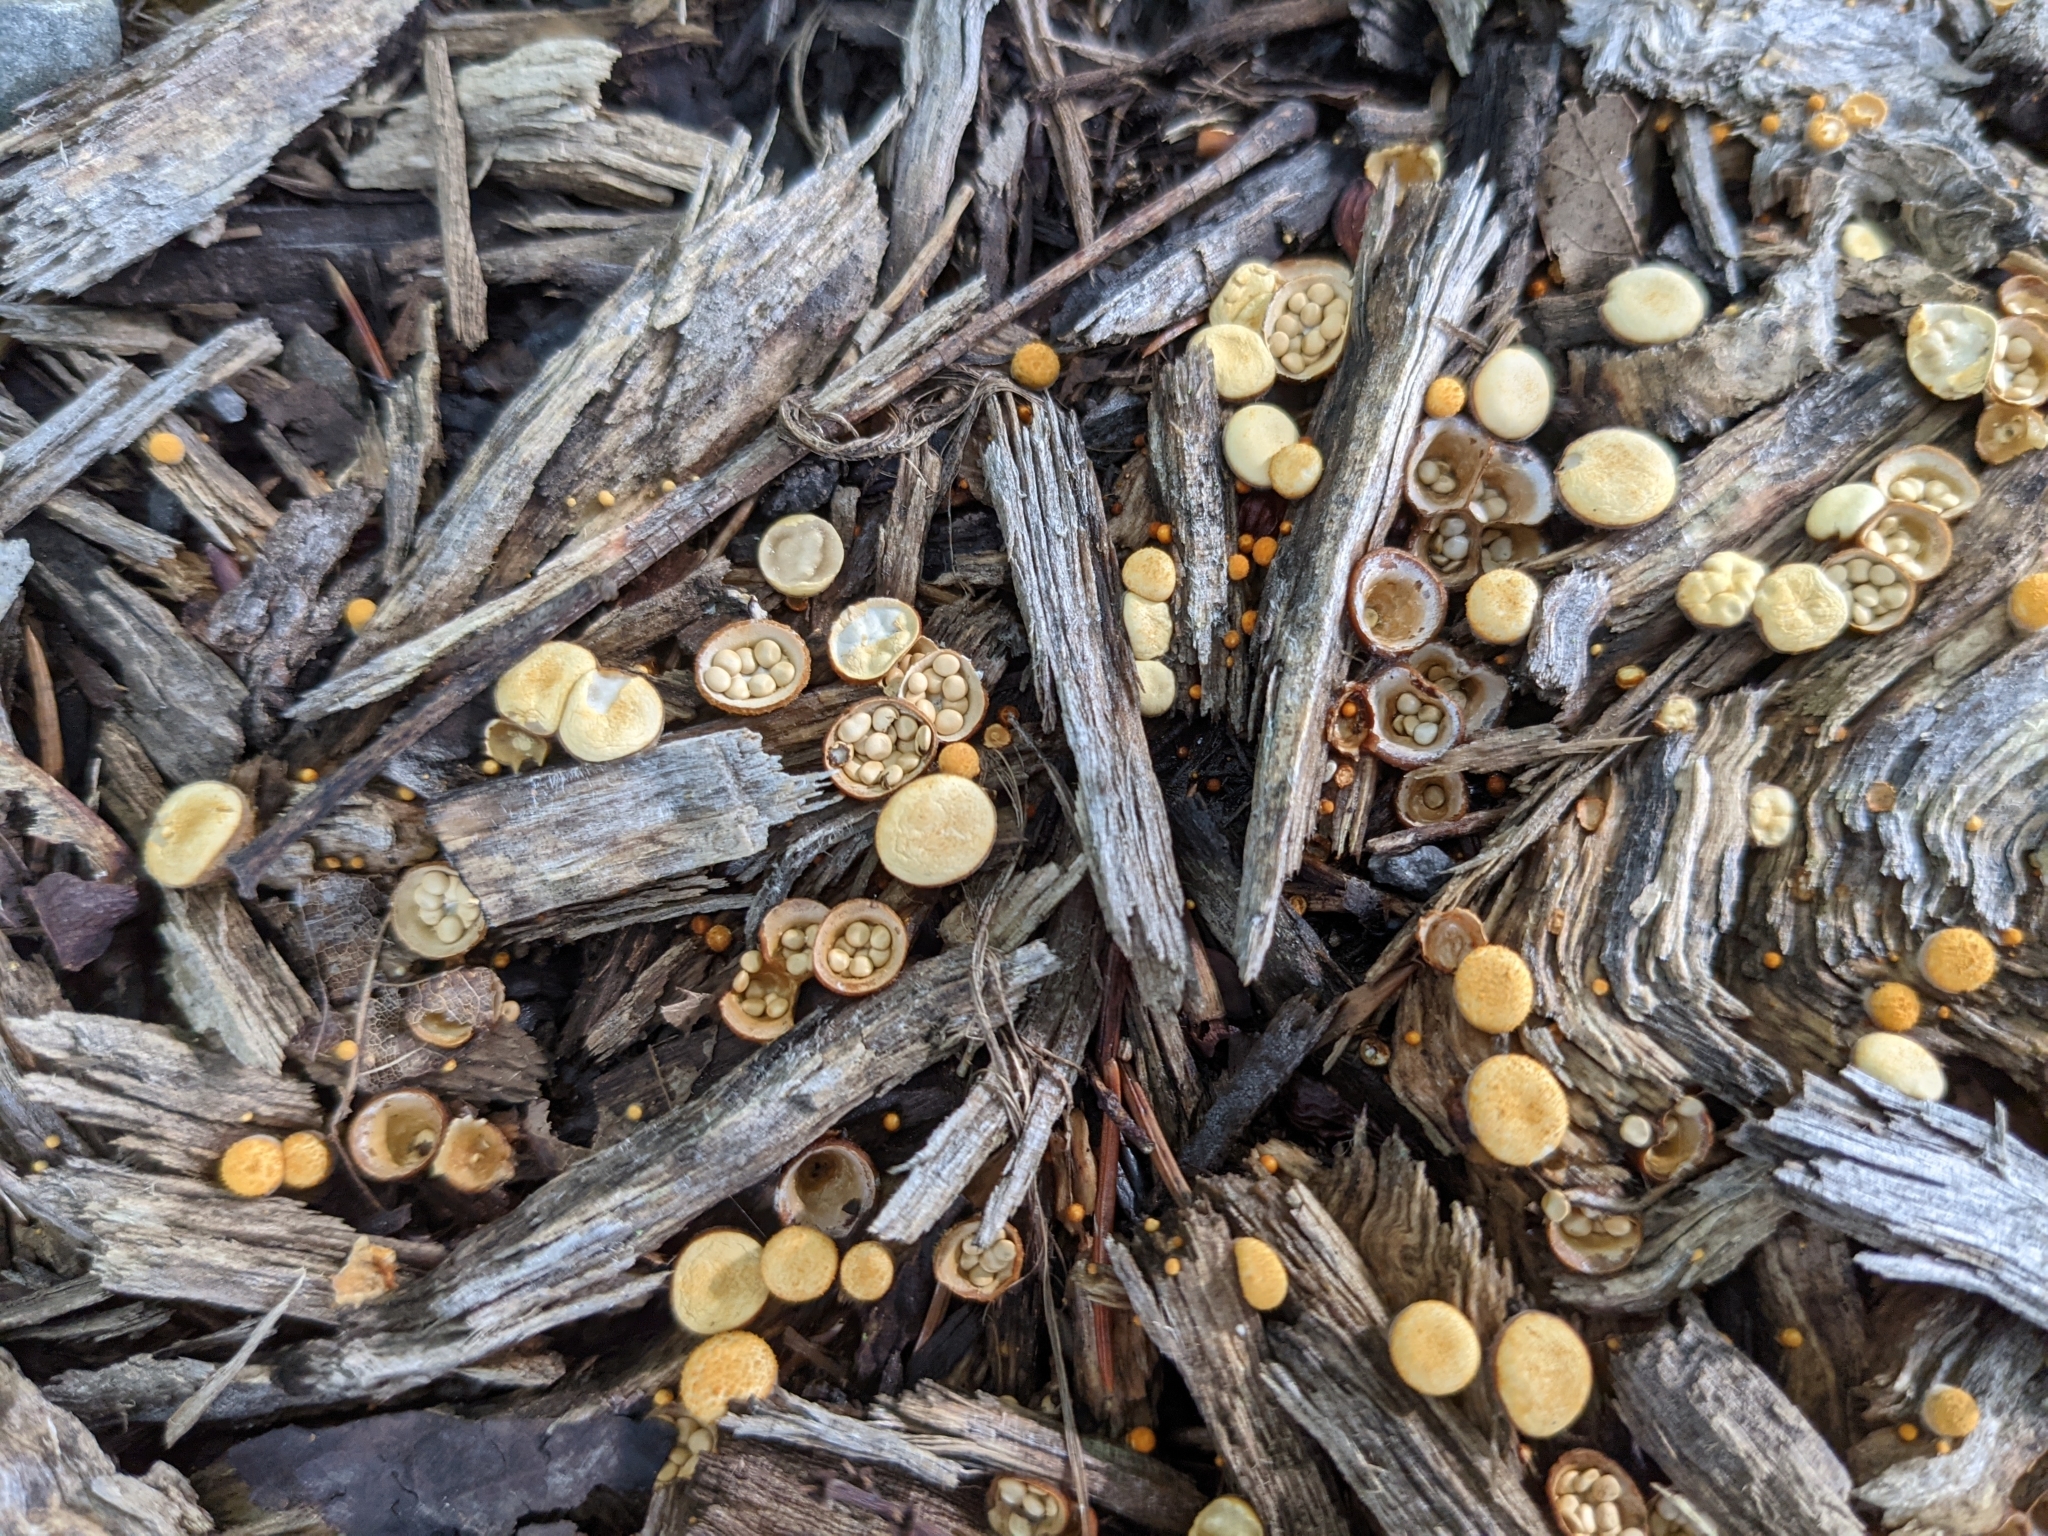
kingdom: Fungi
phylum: Basidiomycota
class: Agaricomycetes
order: Agaricales
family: Nidulariaceae
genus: Crucibulum
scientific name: Crucibulum laeve
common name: Common bird's nest
